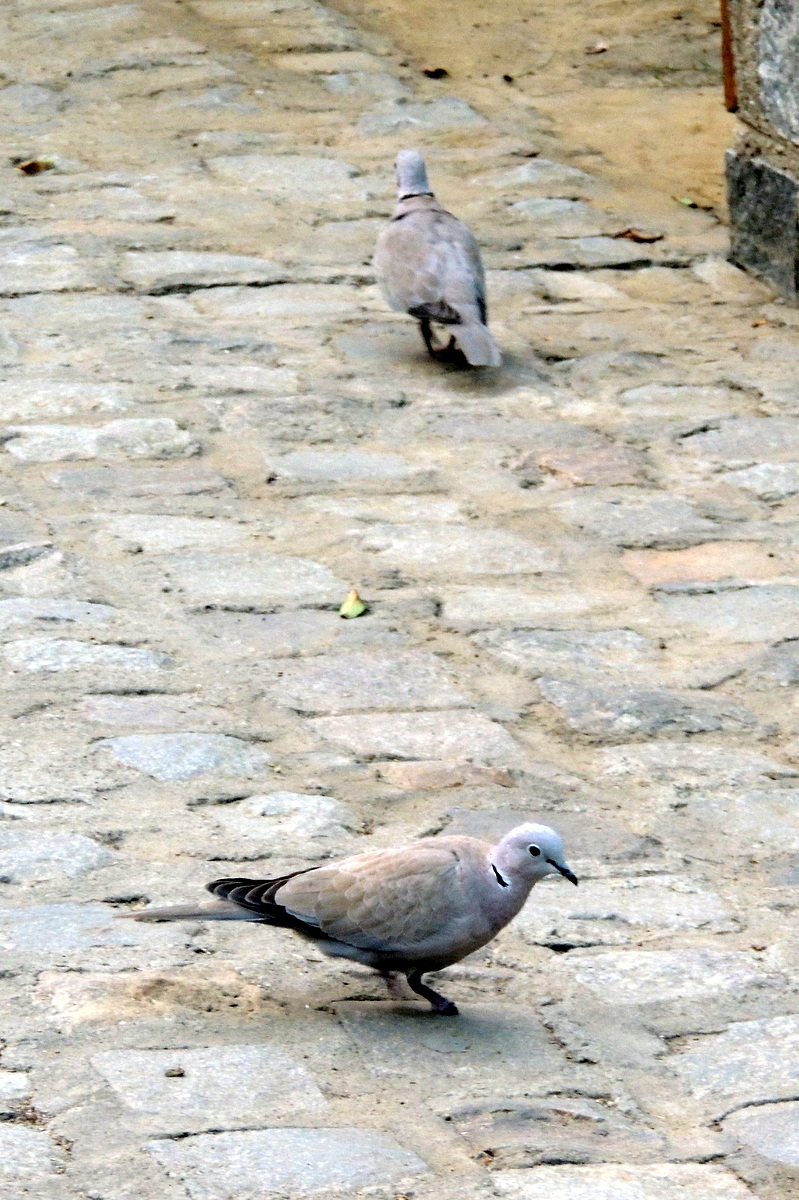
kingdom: Animalia
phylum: Chordata
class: Aves
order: Columbiformes
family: Columbidae
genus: Streptopelia
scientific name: Streptopelia decaocto
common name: Eurasian collared dove
